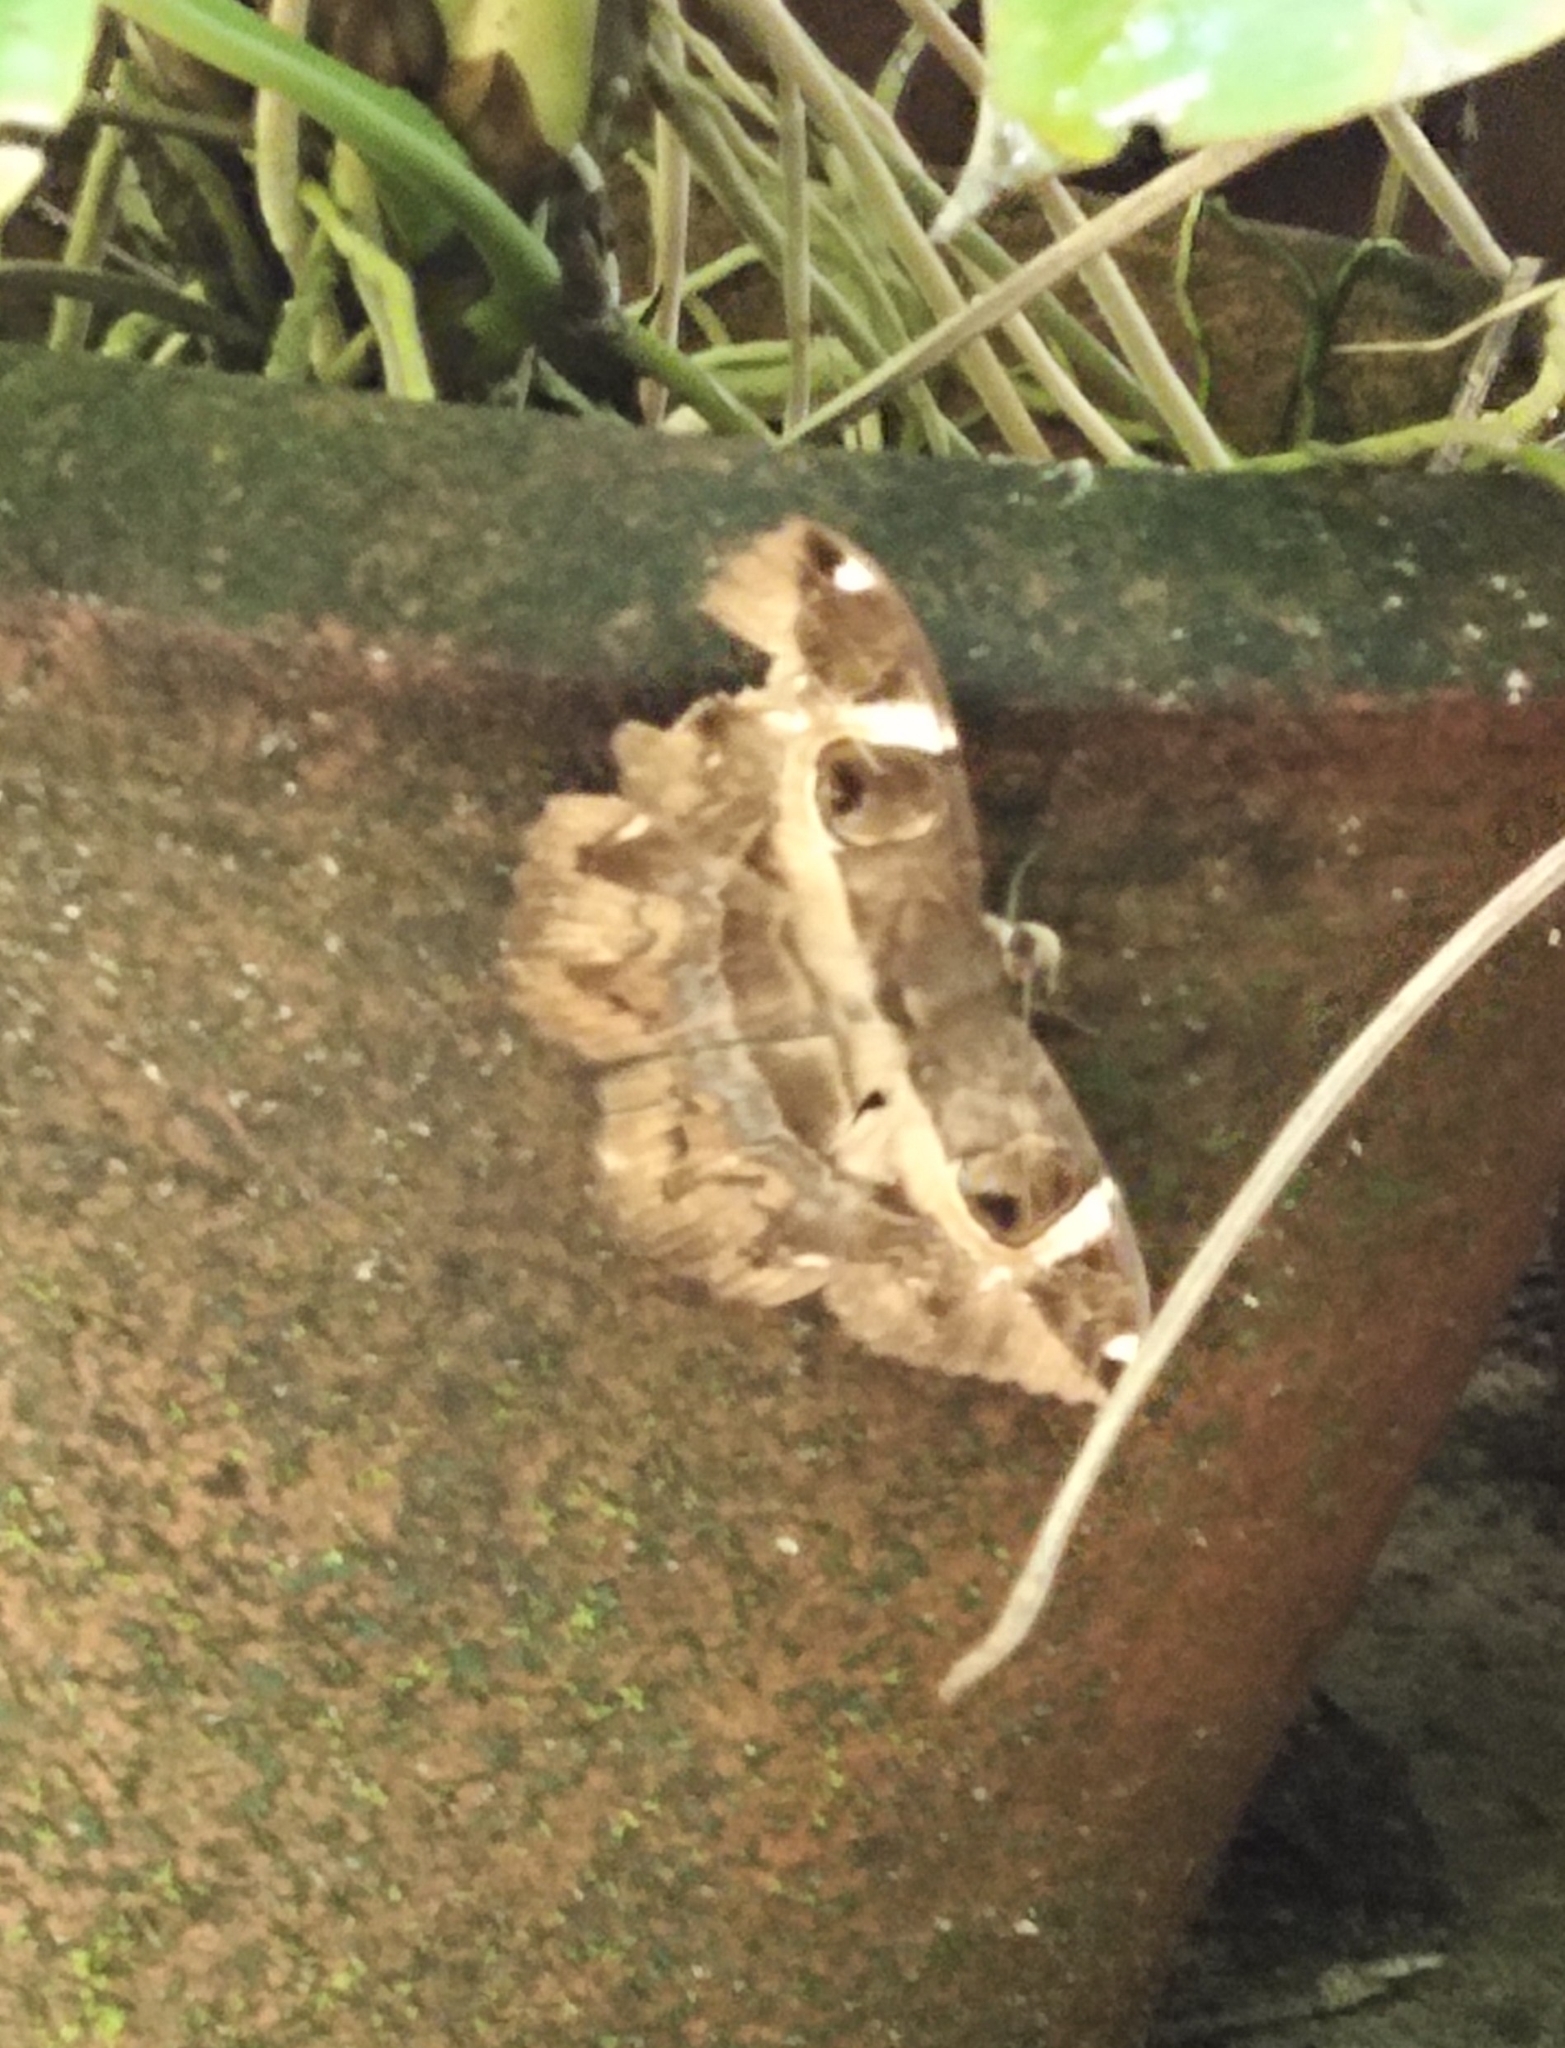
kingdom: Animalia
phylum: Arthropoda
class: Insecta
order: Lepidoptera
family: Erebidae
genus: Erebus
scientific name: Erebus ephesperis
